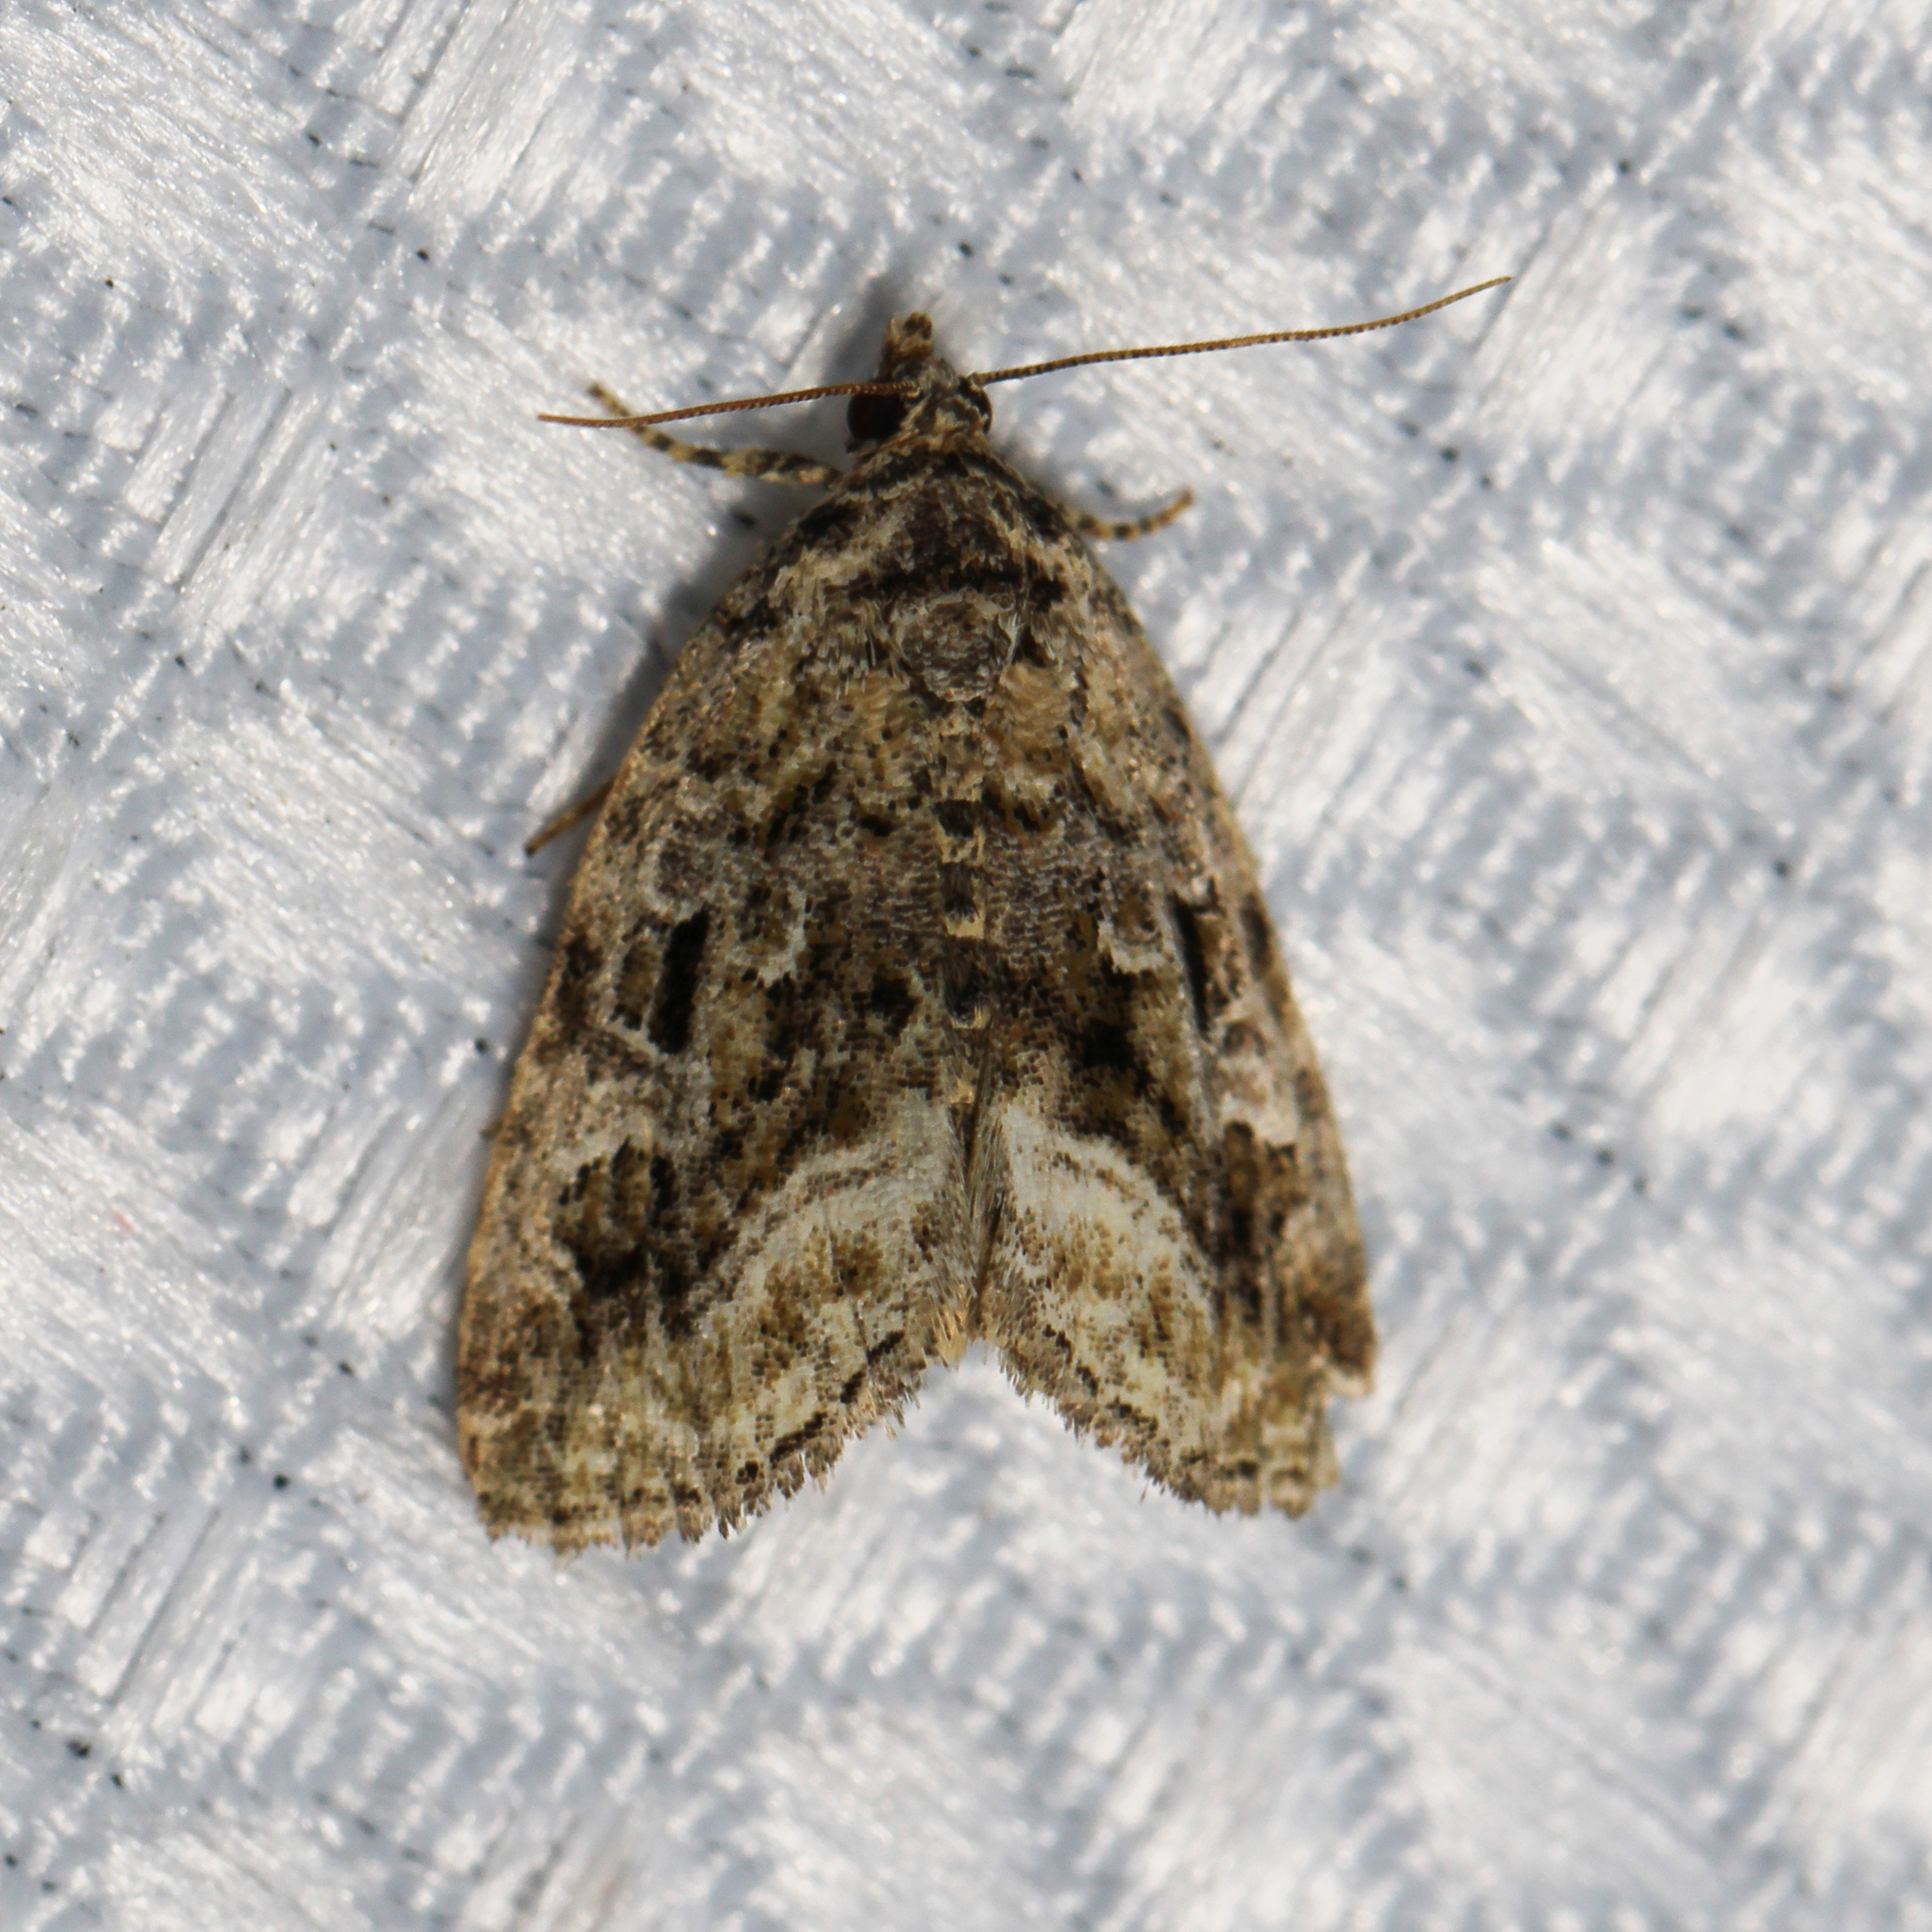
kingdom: Animalia
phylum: Arthropoda
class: Insecta
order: Lepidoptera
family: Noctuidae
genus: Protodeltote
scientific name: Protodeltote muscosula
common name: Large mossy glyph
